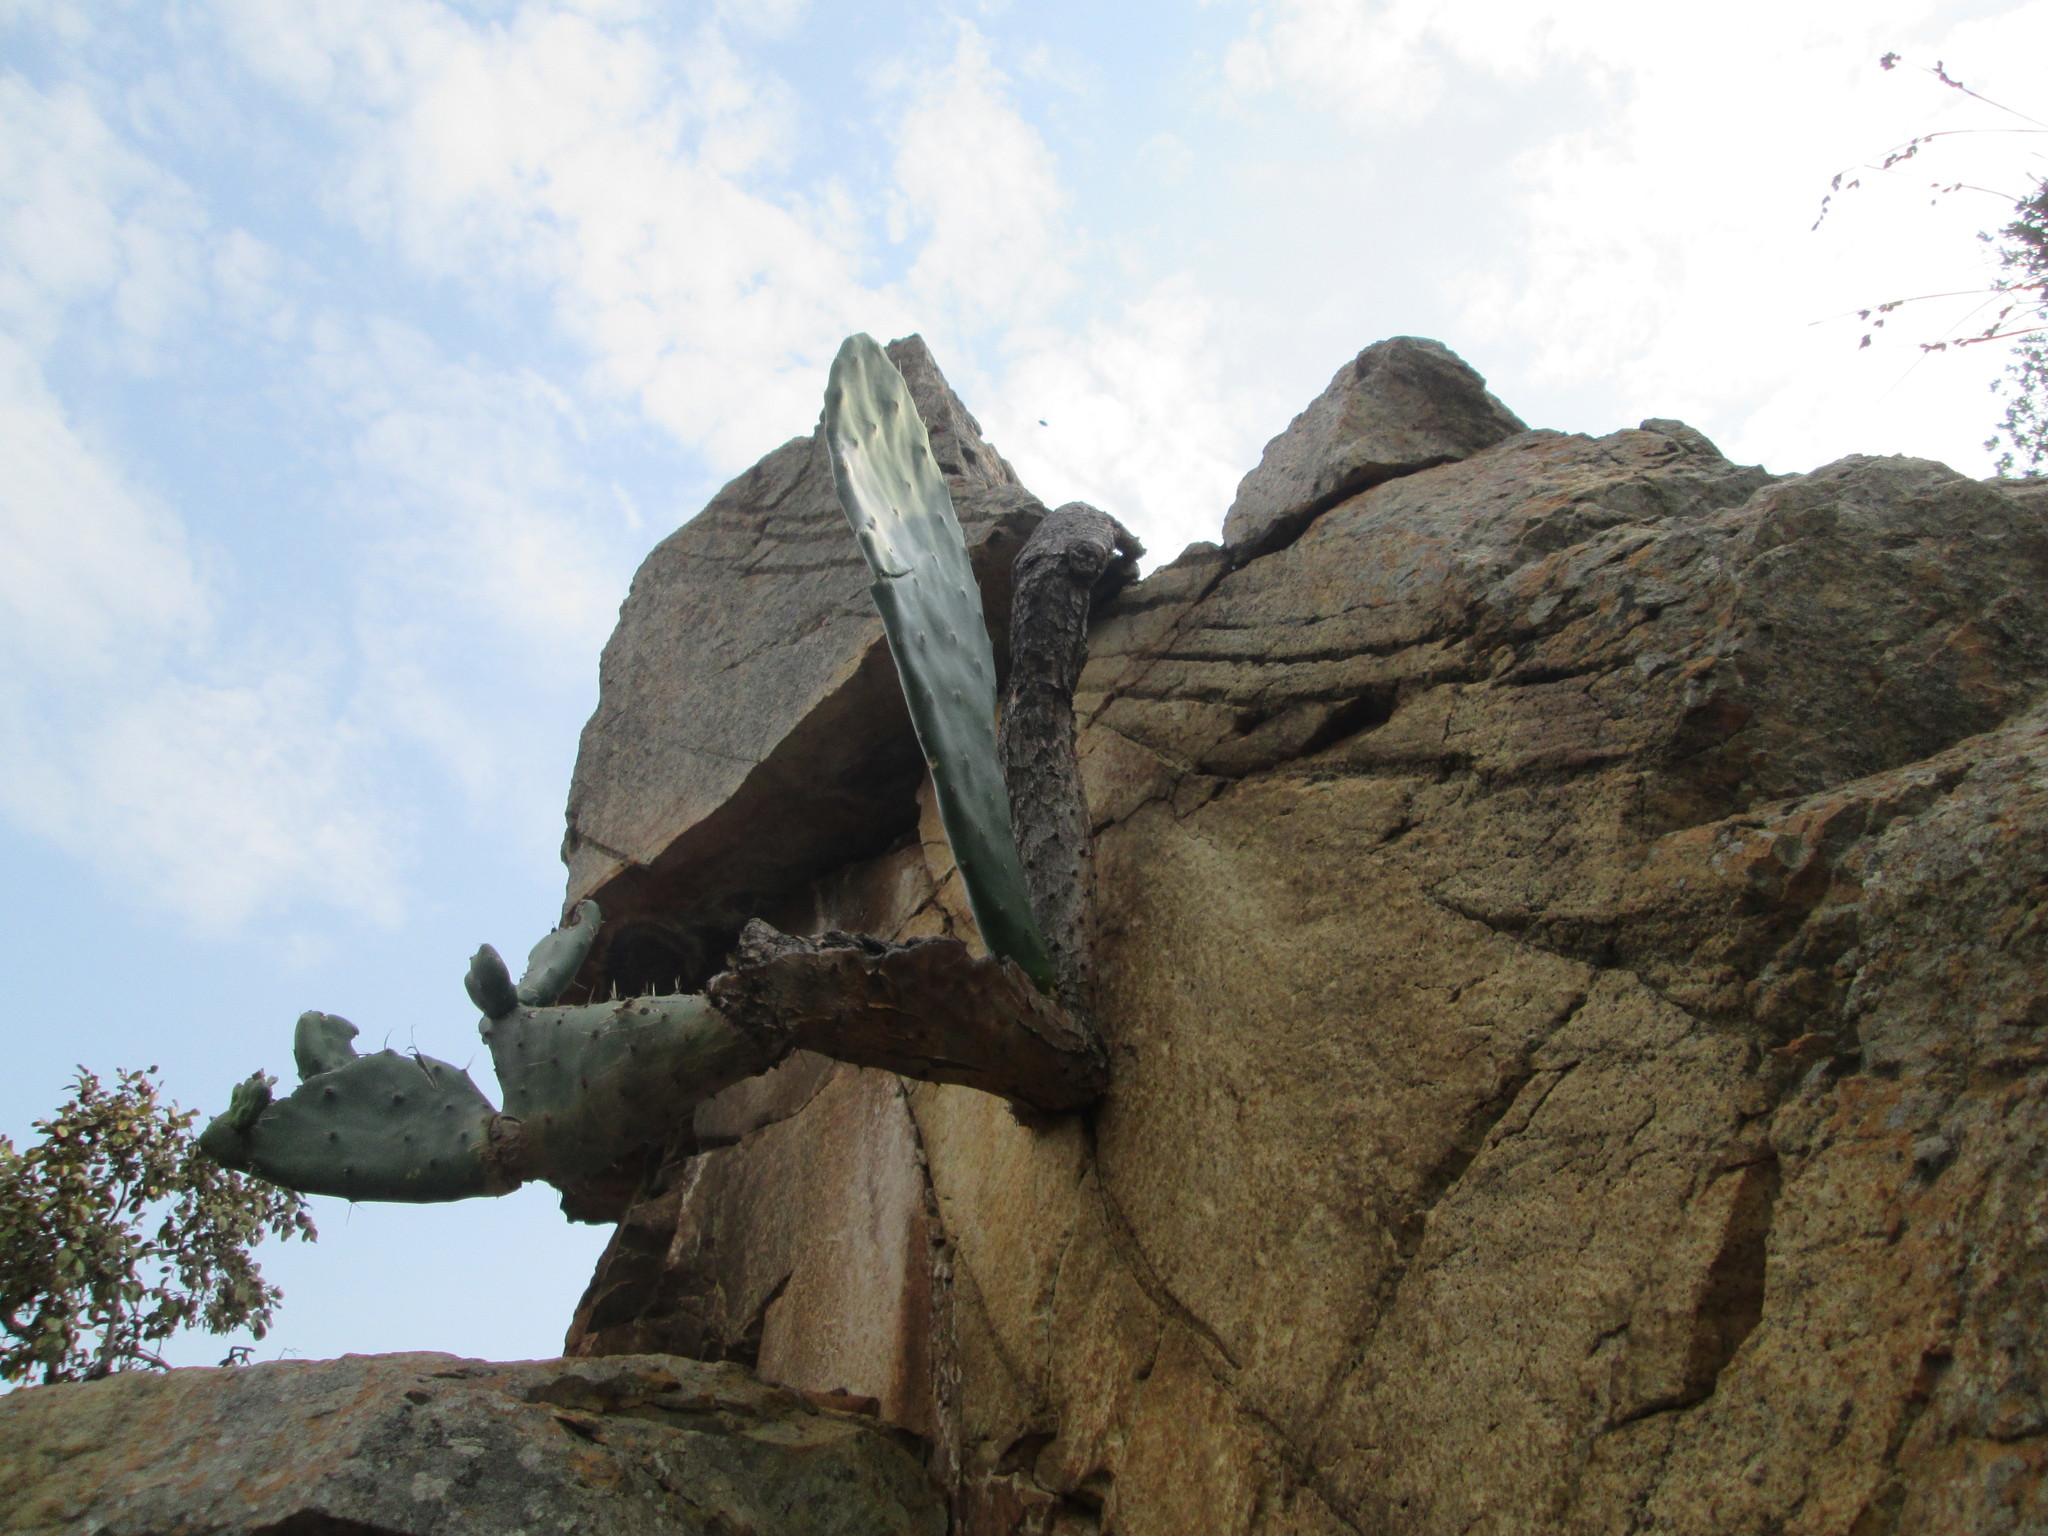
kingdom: Plantae
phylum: Tracheophyta
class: Magnoliopsida
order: Caryophyllales
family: Cactaceae
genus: Opuntia
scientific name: Opuntia ficus-indica
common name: Barbary fig
